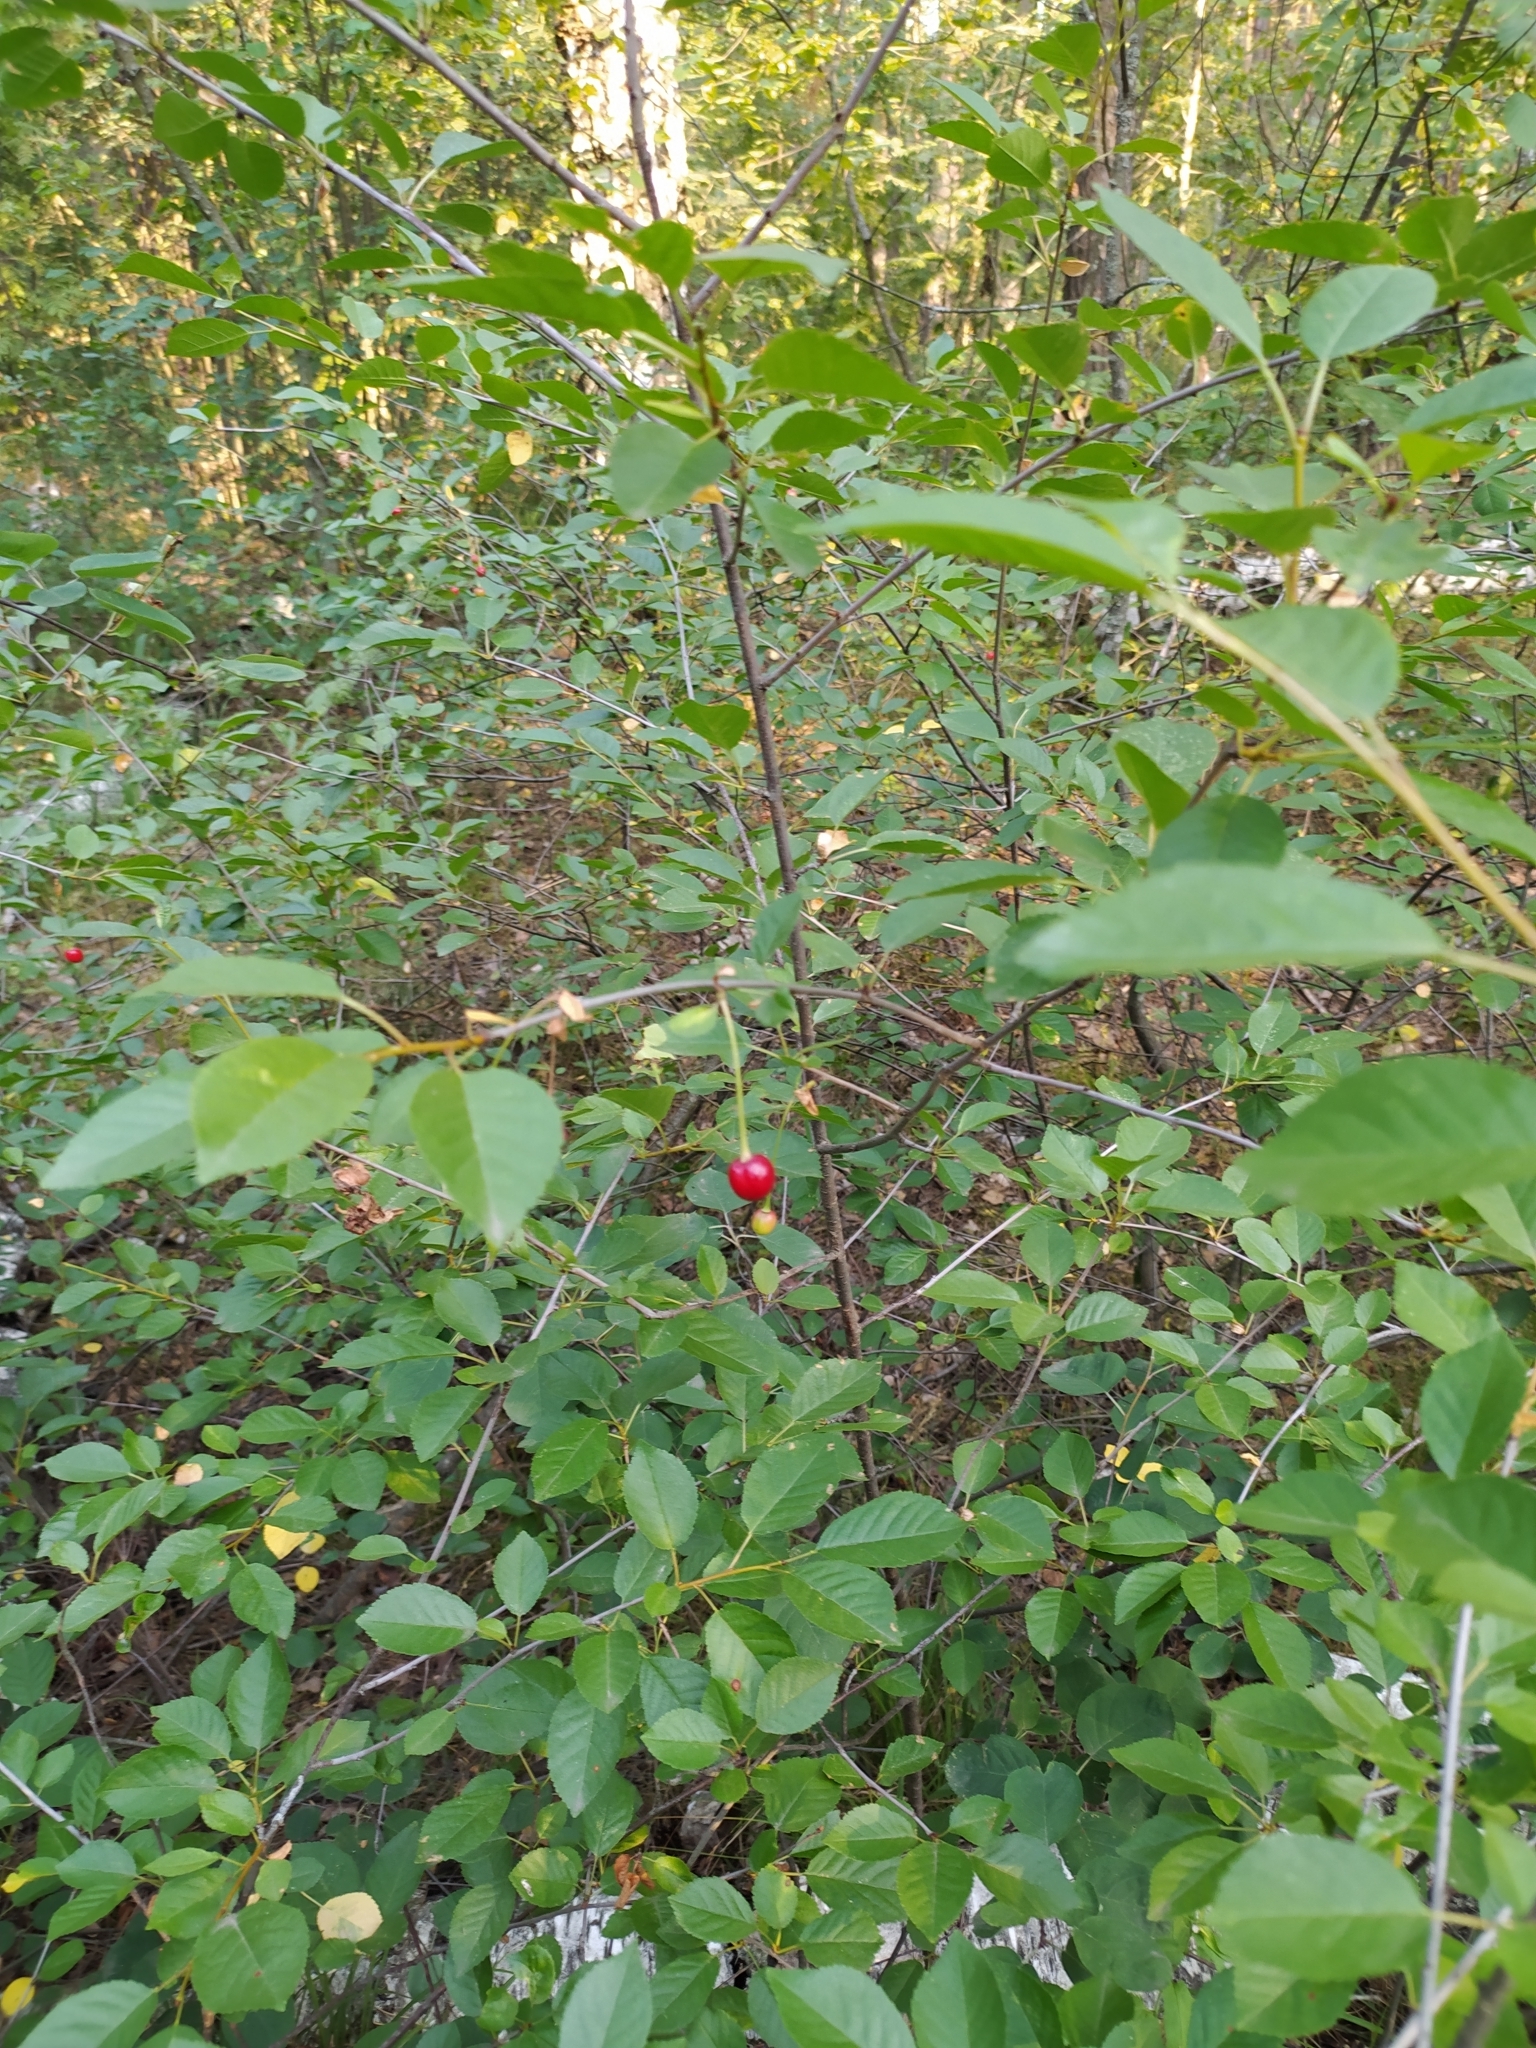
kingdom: Plantae
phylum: Tracheophyta
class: Magnoliopsida
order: Rosales
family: Rosaceae
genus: Prunus
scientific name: Prunus cerasus
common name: Morello cherry
